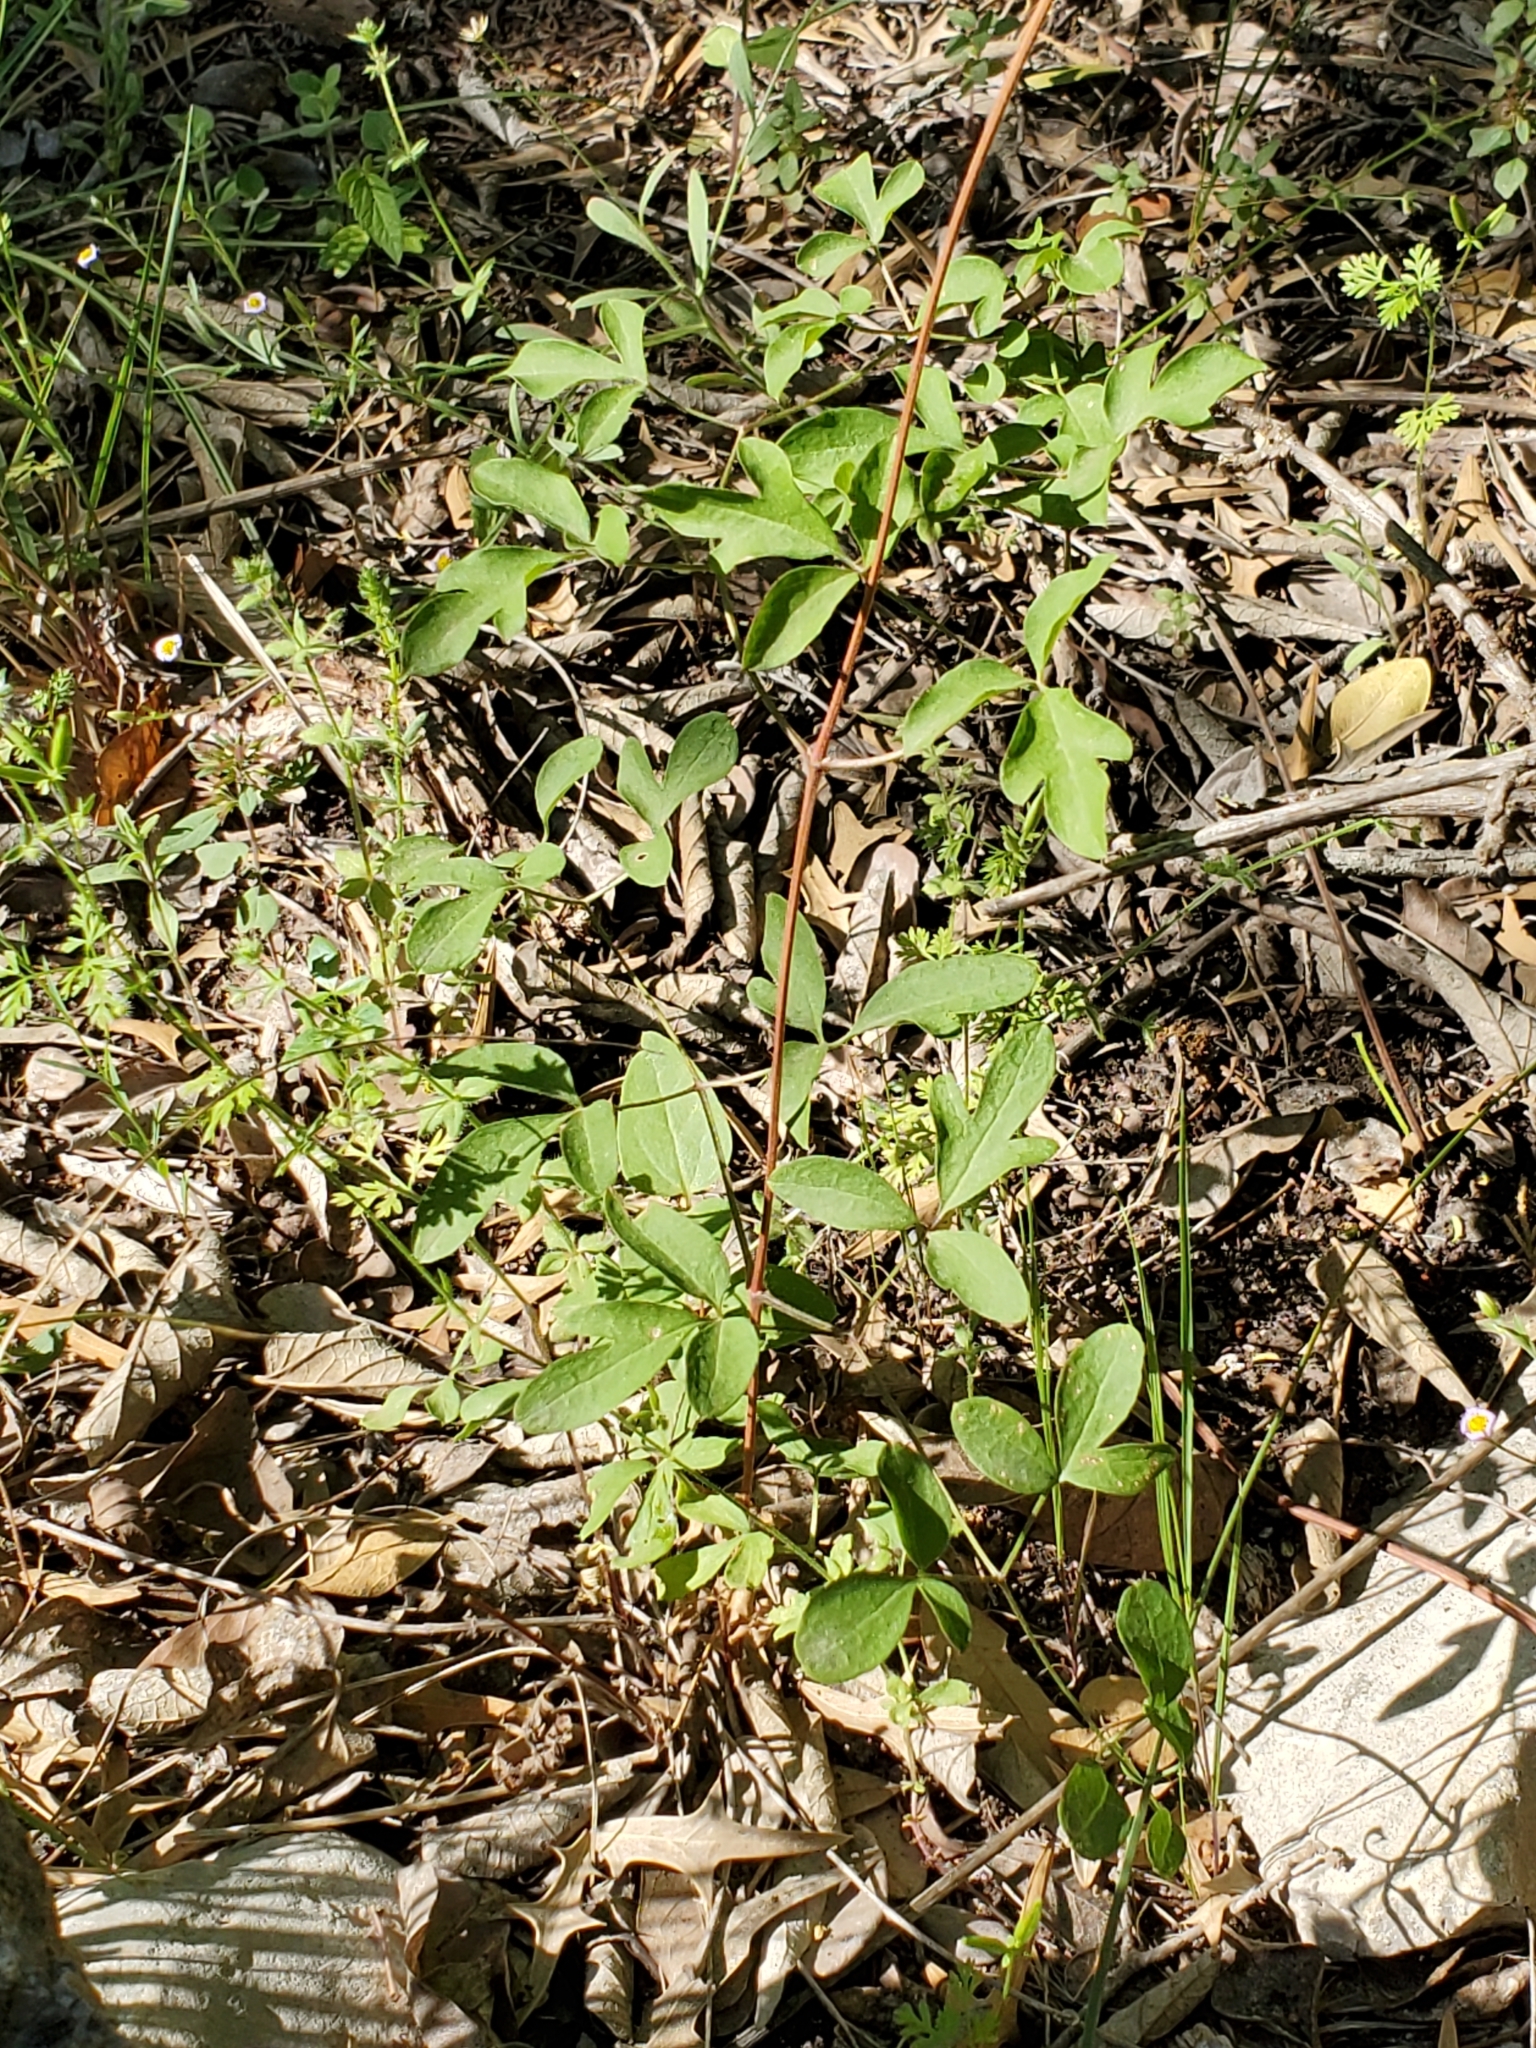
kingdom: Plantae
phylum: Tracheophyta
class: Magnoliopsida
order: Ranunculales
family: Ranunculaceae
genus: Clematis
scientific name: Clematis pitcheri
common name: Bellflower clematis
